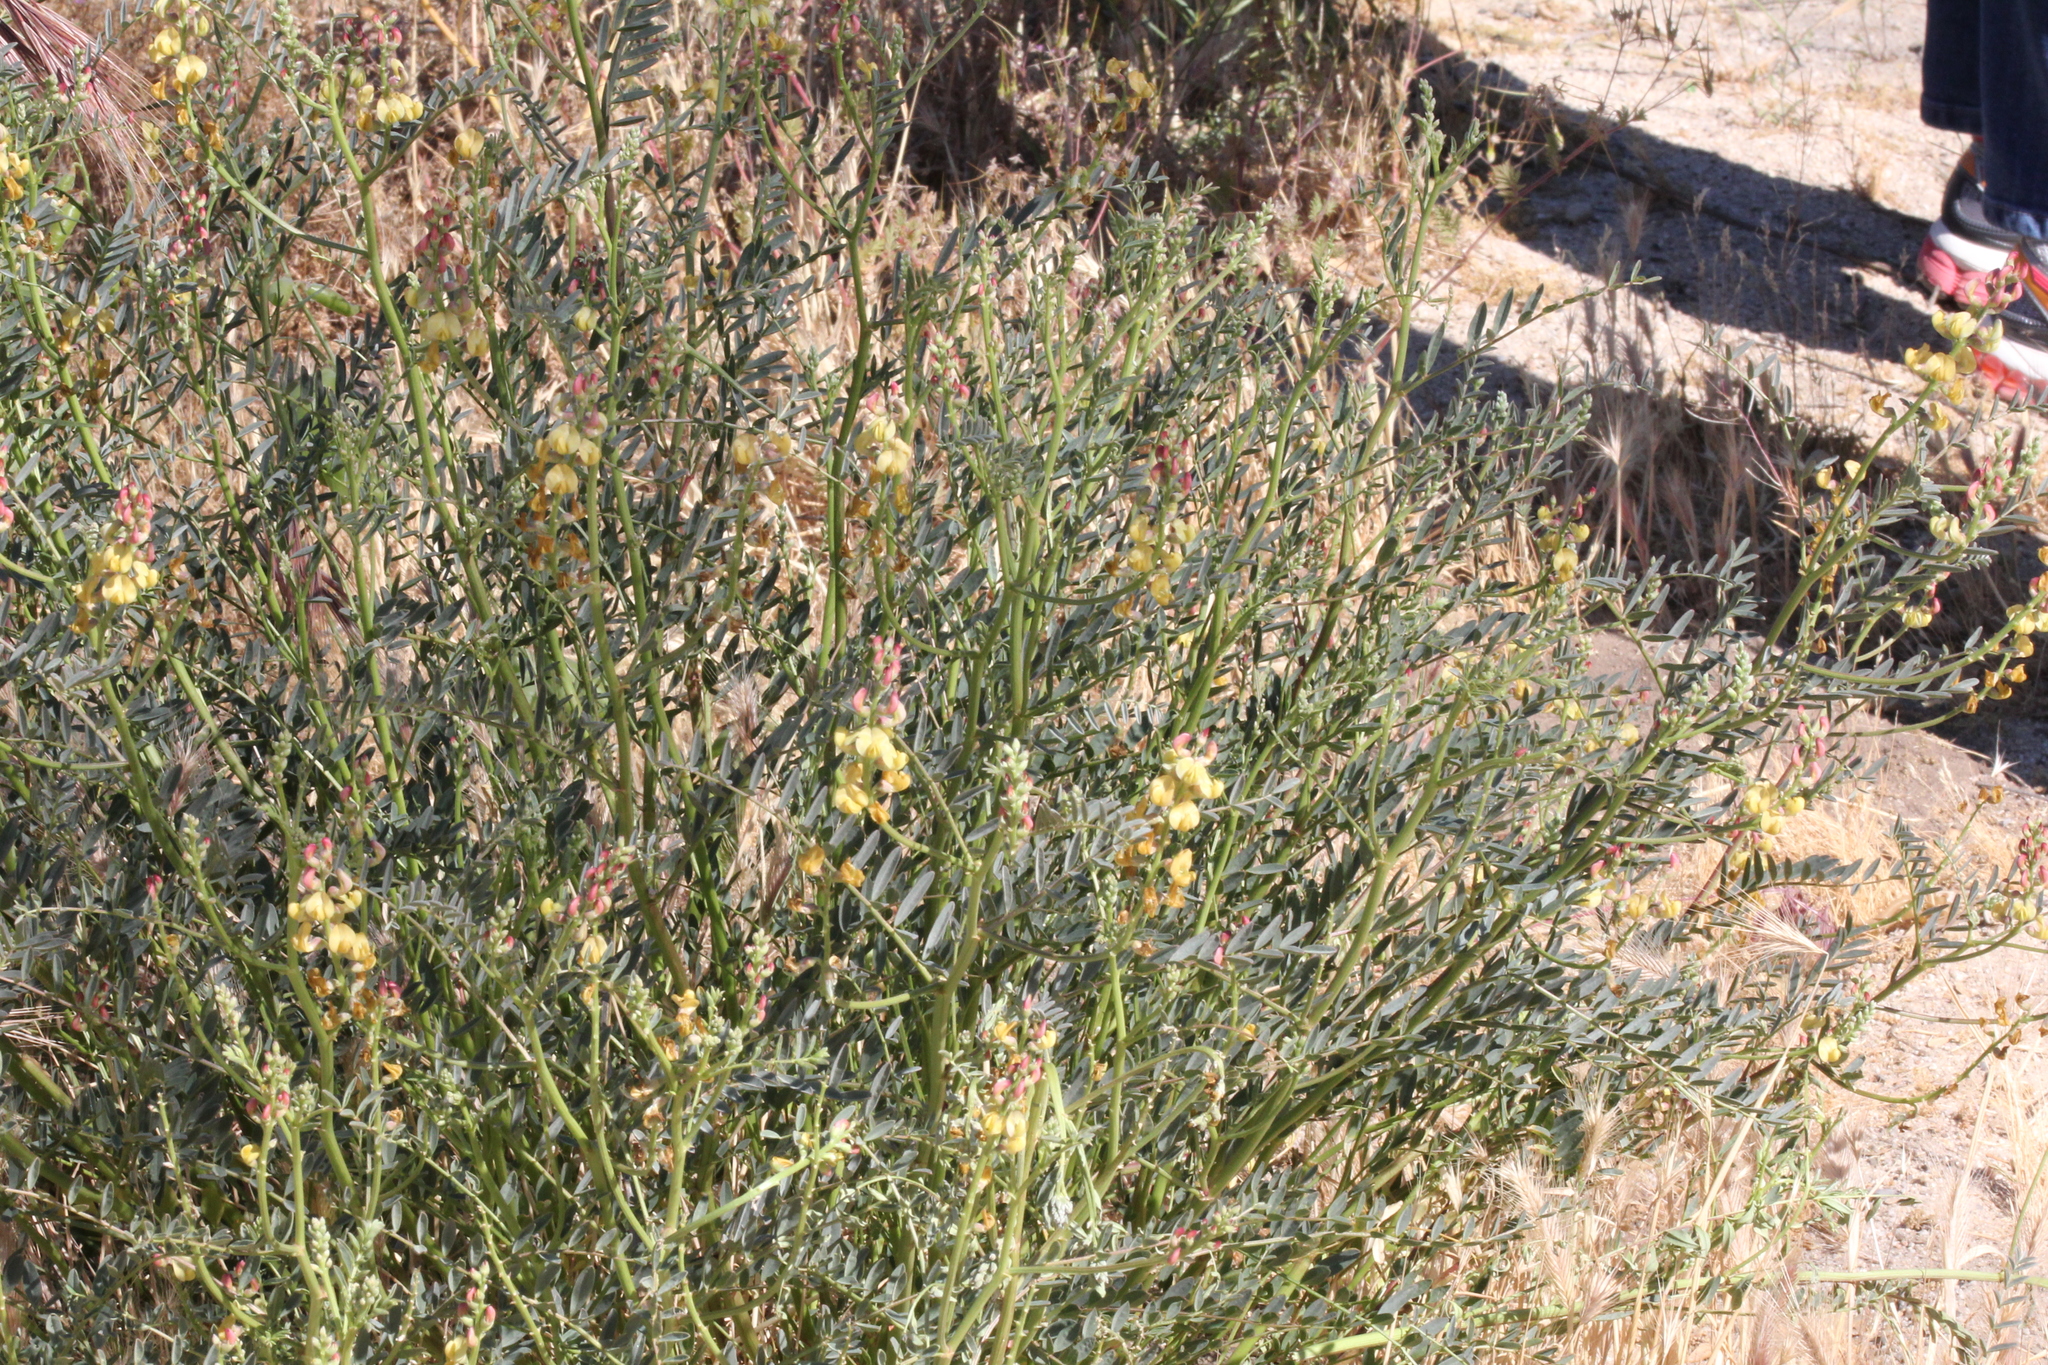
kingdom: Plantae
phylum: Tracheophyta
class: Magnoliopsida
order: Fabales
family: Fabaceae
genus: Astragalus
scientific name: Astragalus douglasii
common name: Jacumba milkvetch
